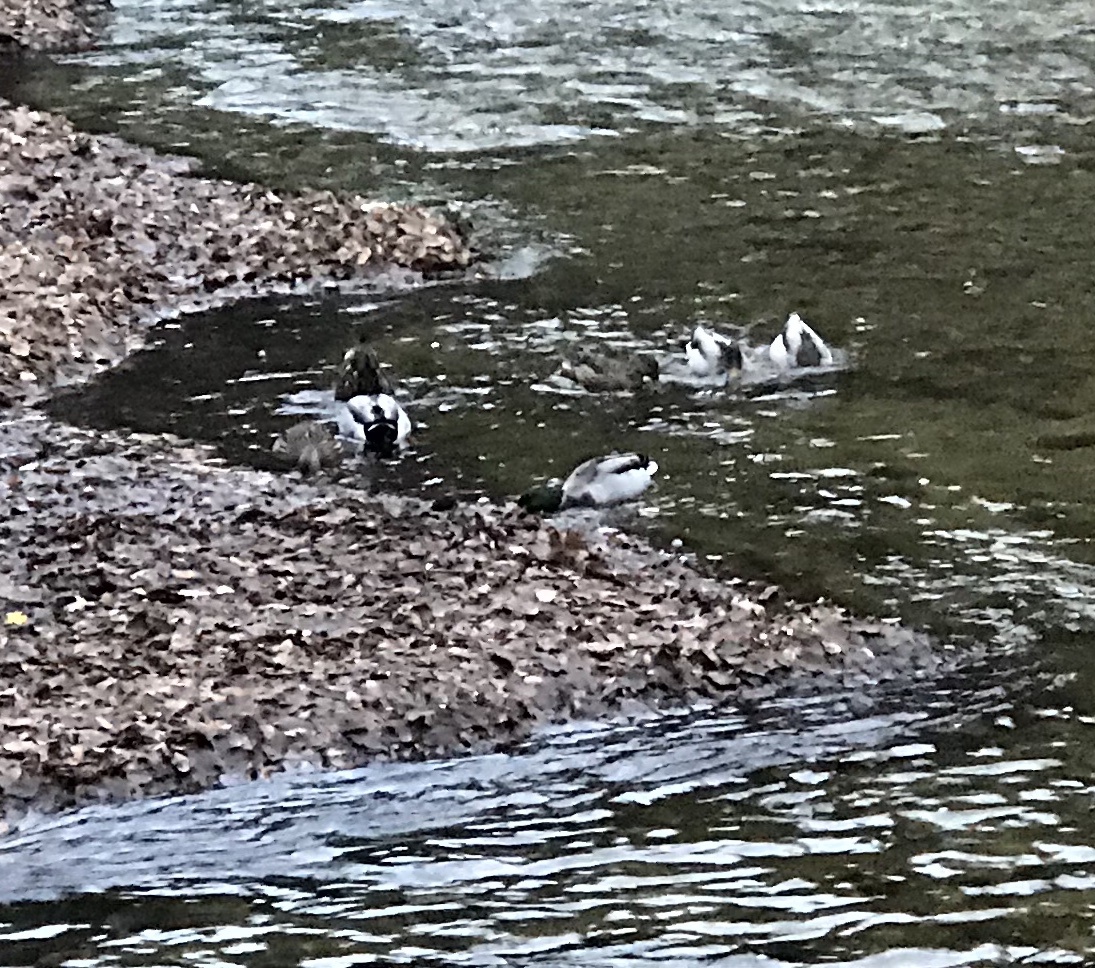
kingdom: Animalia
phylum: Chordata
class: Aves
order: Anseriformes
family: Anatidae
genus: Anas
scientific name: Anas platyrhynchos
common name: Mallard
